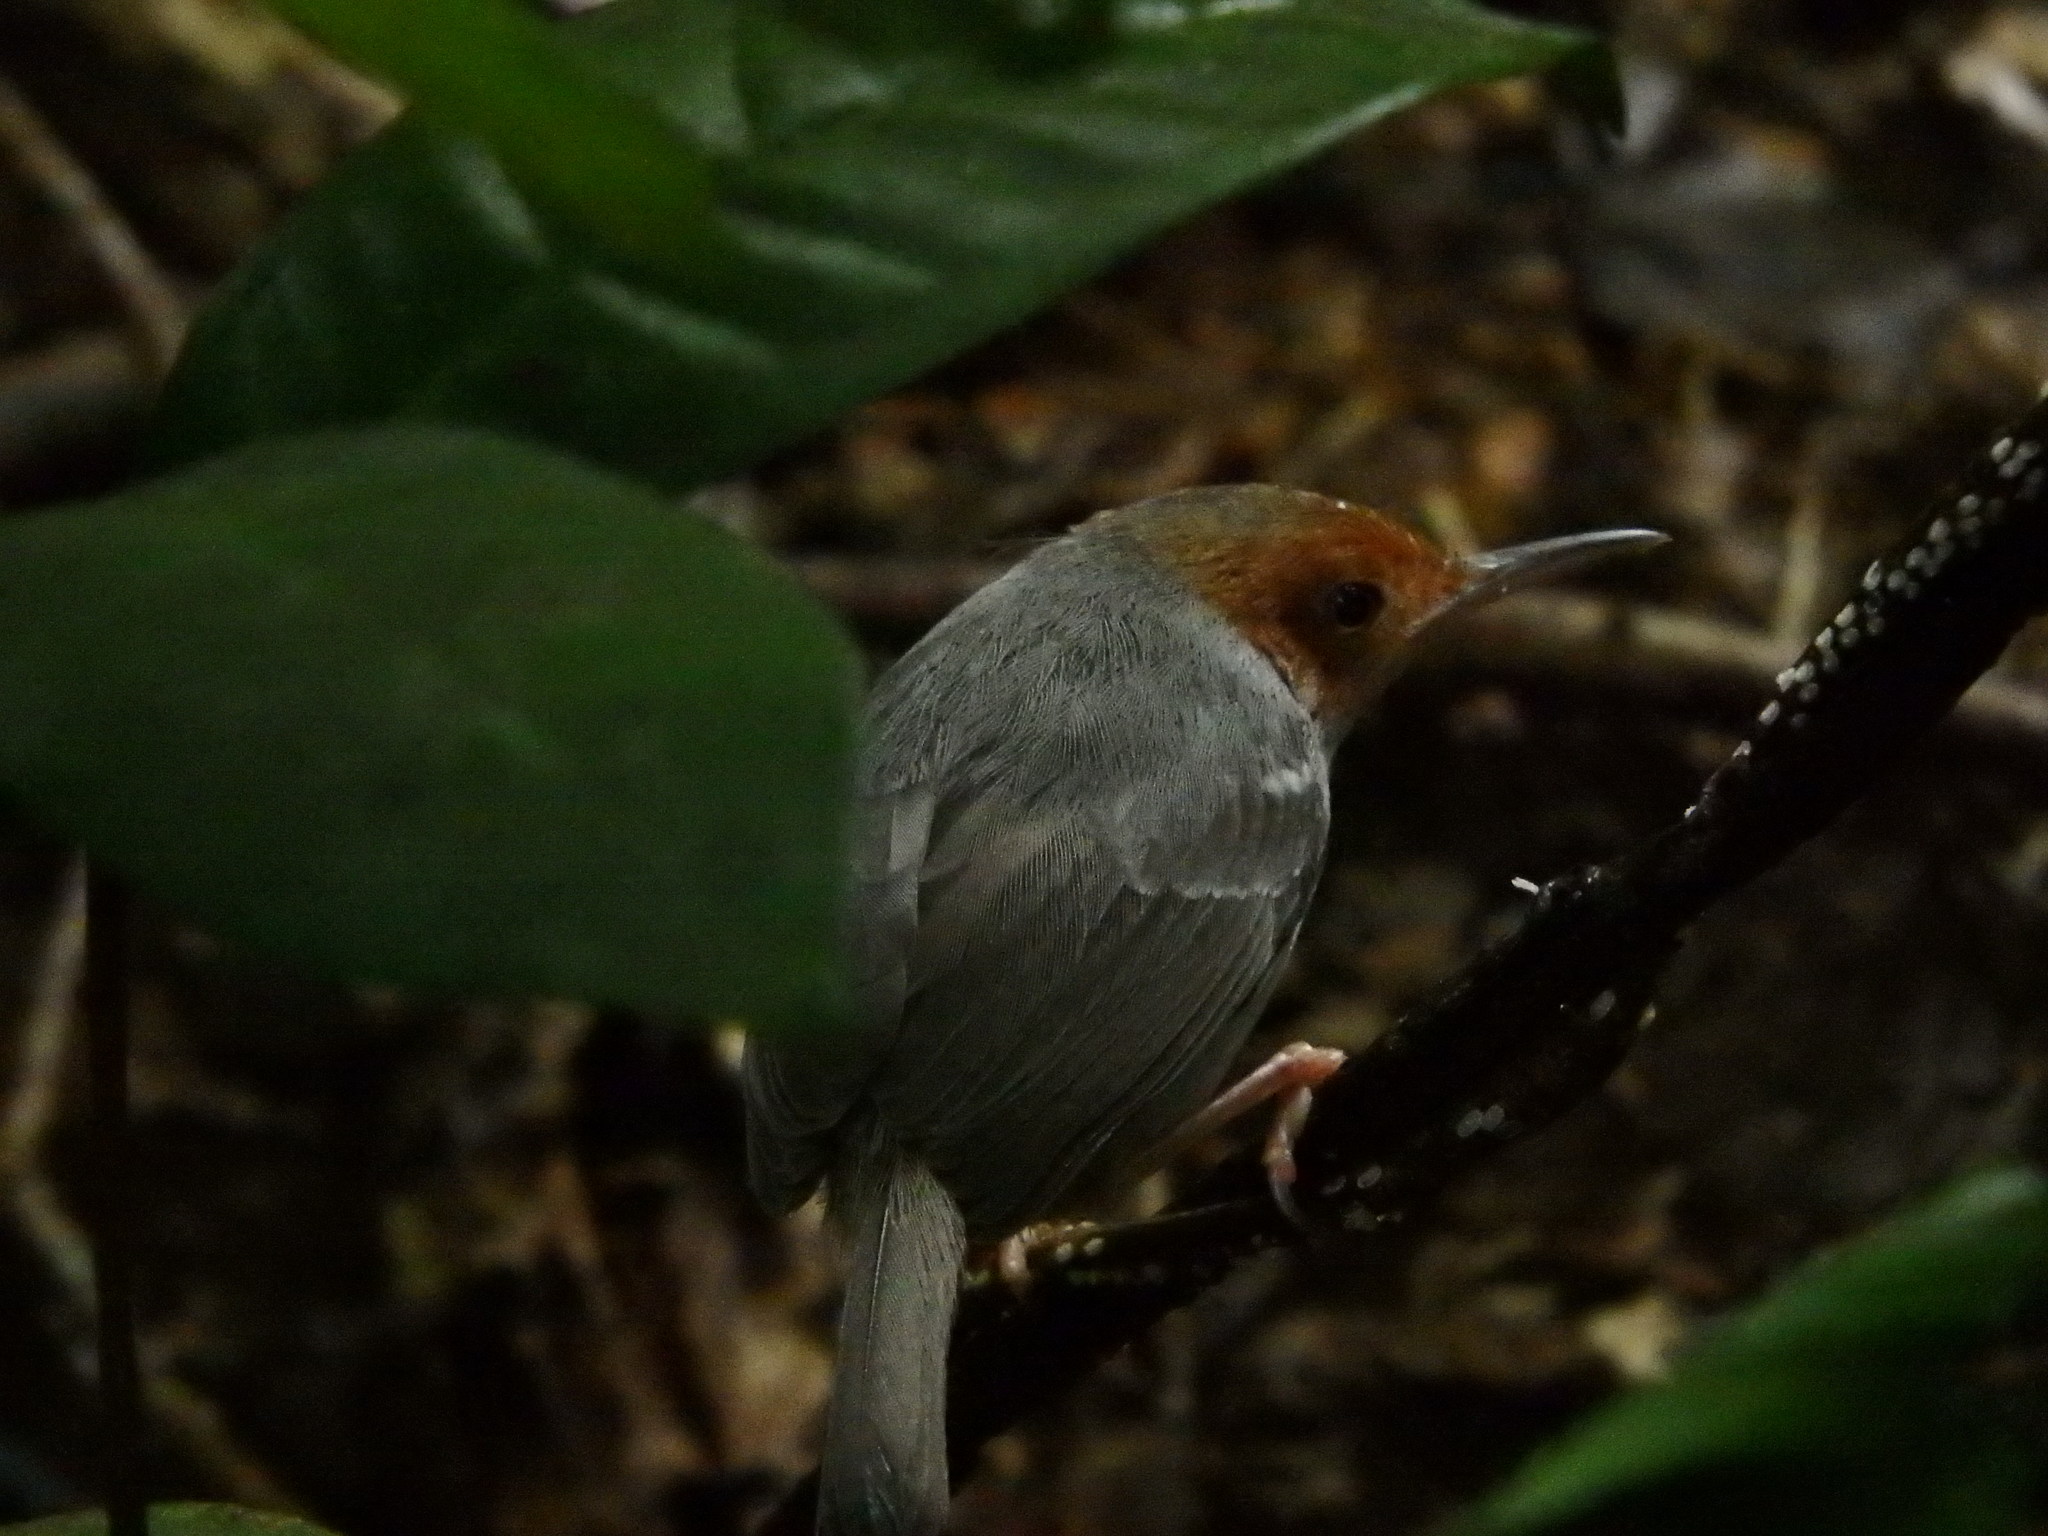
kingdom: Animalia
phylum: Chordata
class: Aves
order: Passeriformes
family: Cisticolidae
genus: Orthotomus
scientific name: Orthotomus ruficeps
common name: Ashy tailorbird
